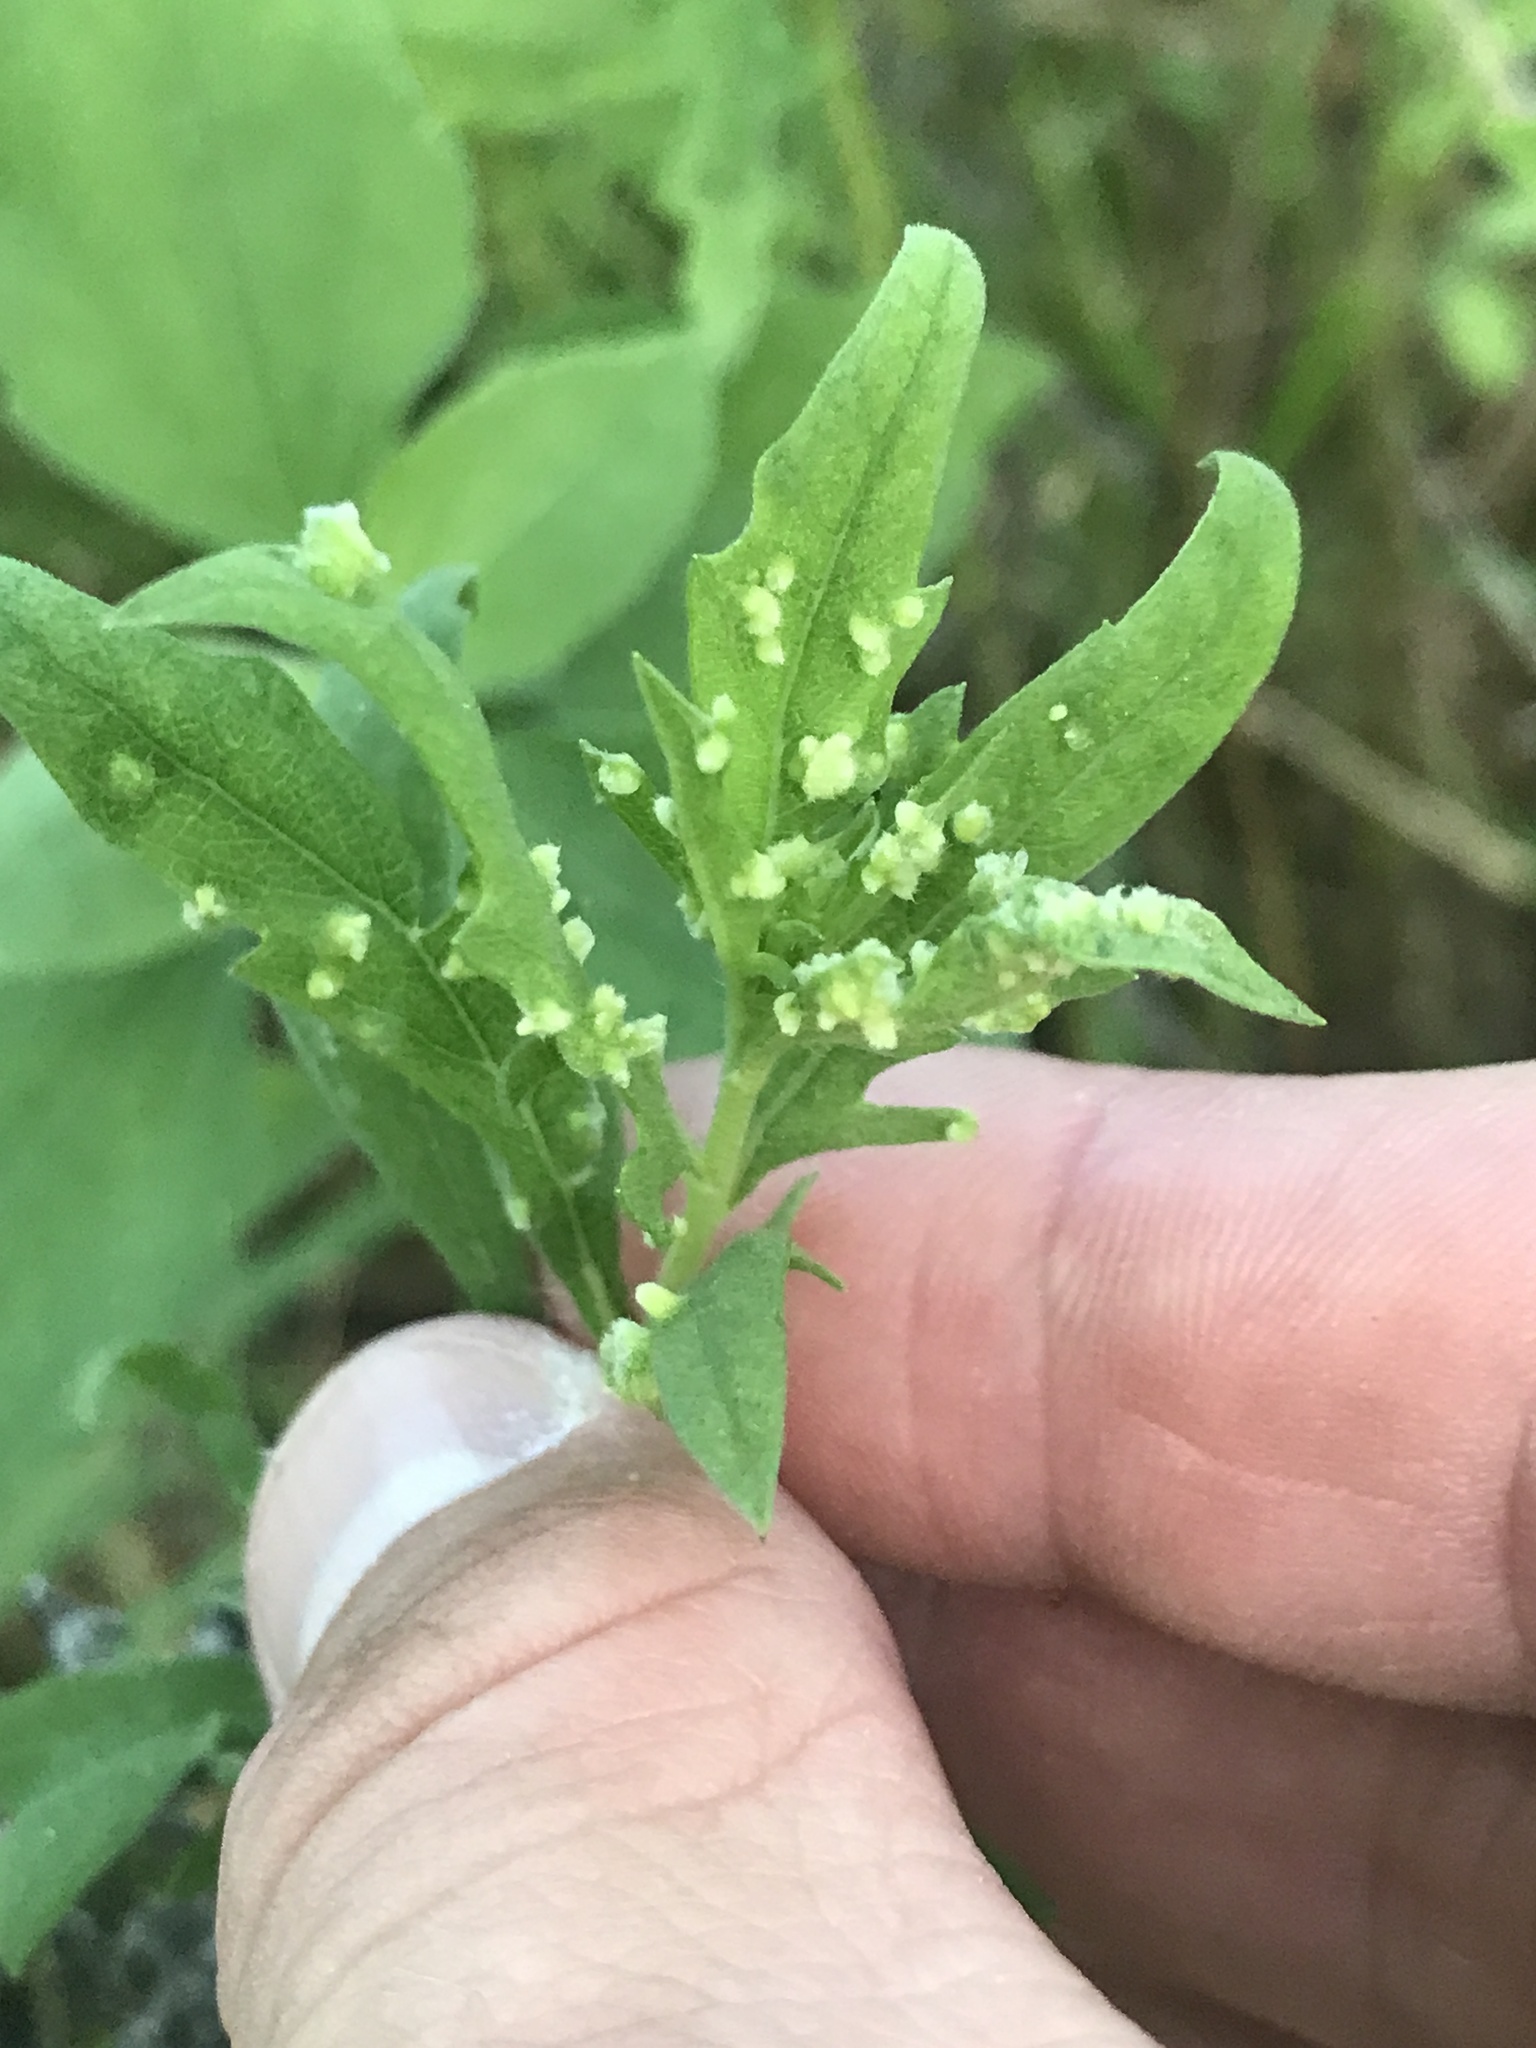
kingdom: Animalia
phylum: Arthropoda
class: Arachnida
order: Trombidiformes
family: Eriophyidae
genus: Aceria
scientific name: Aceria
